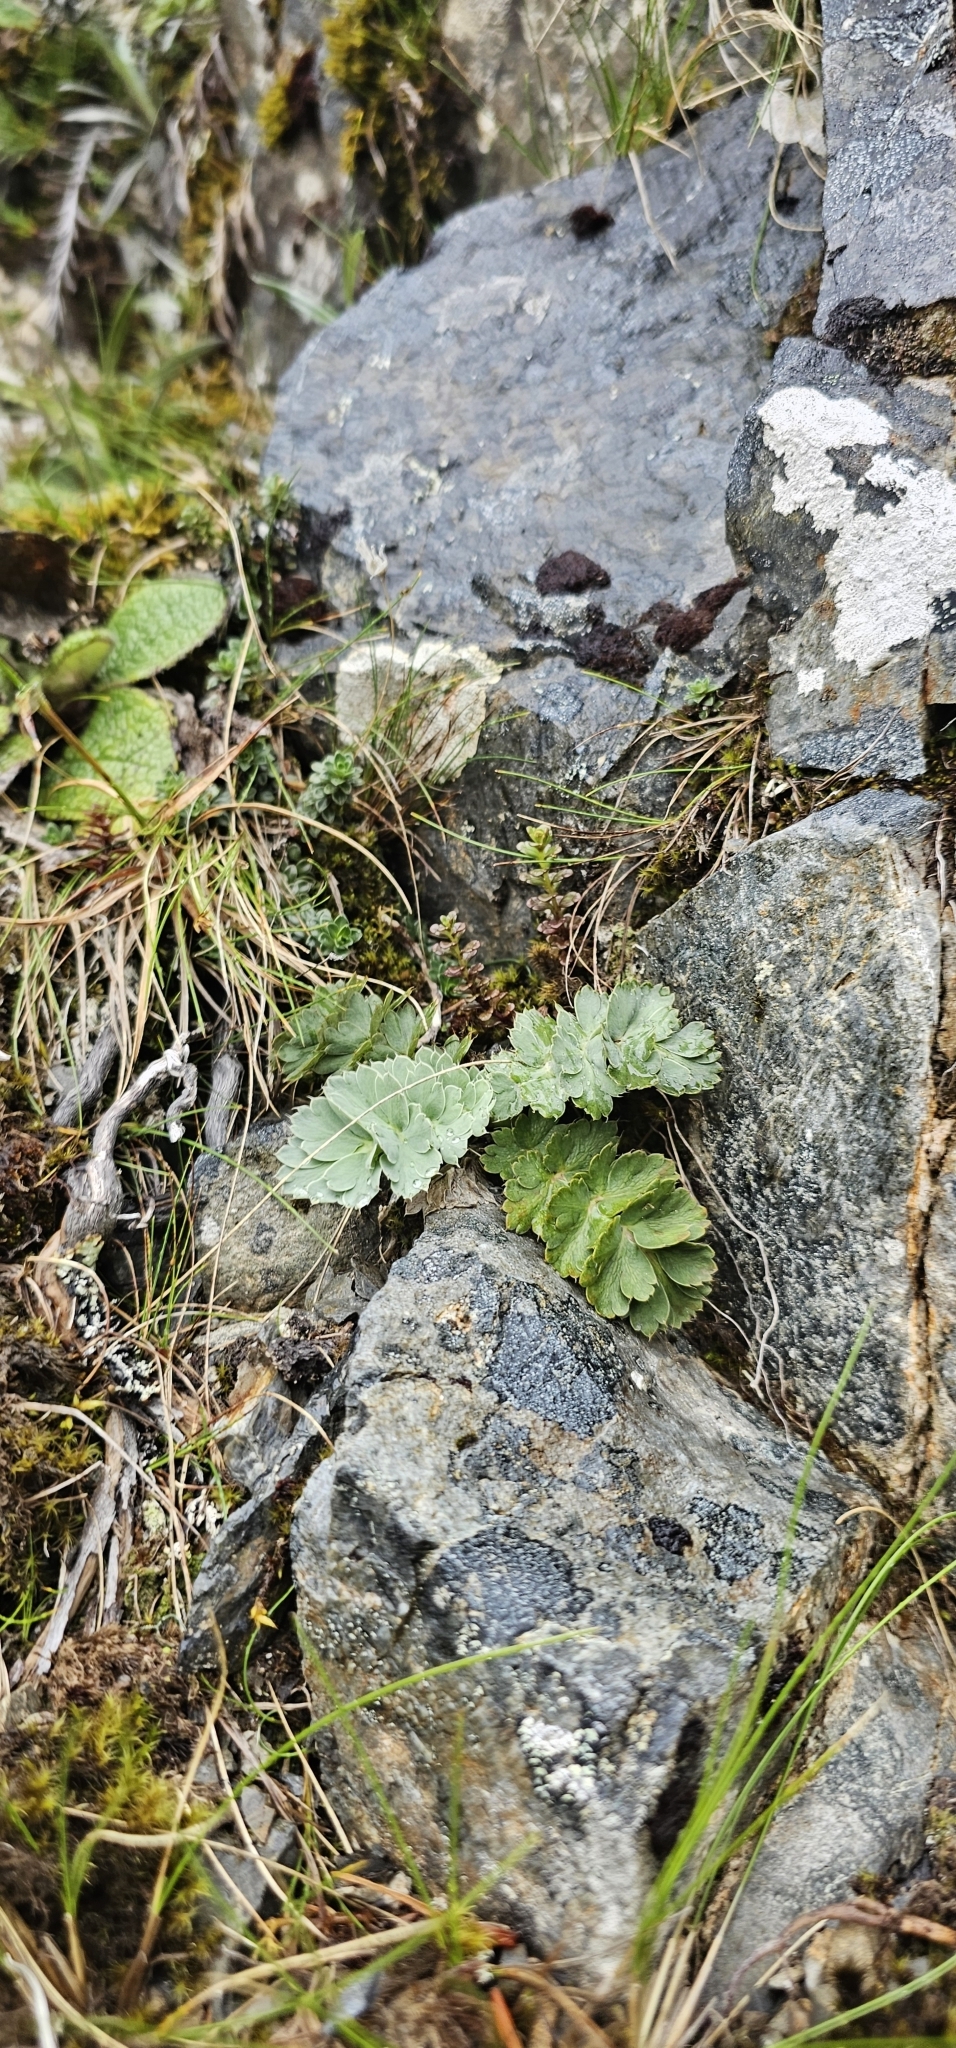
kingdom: Plantae
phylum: Tracheophyta
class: Magnoliopsida
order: Apiales
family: Apiaceae
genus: Anisotome
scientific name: Anisotome pilifera
